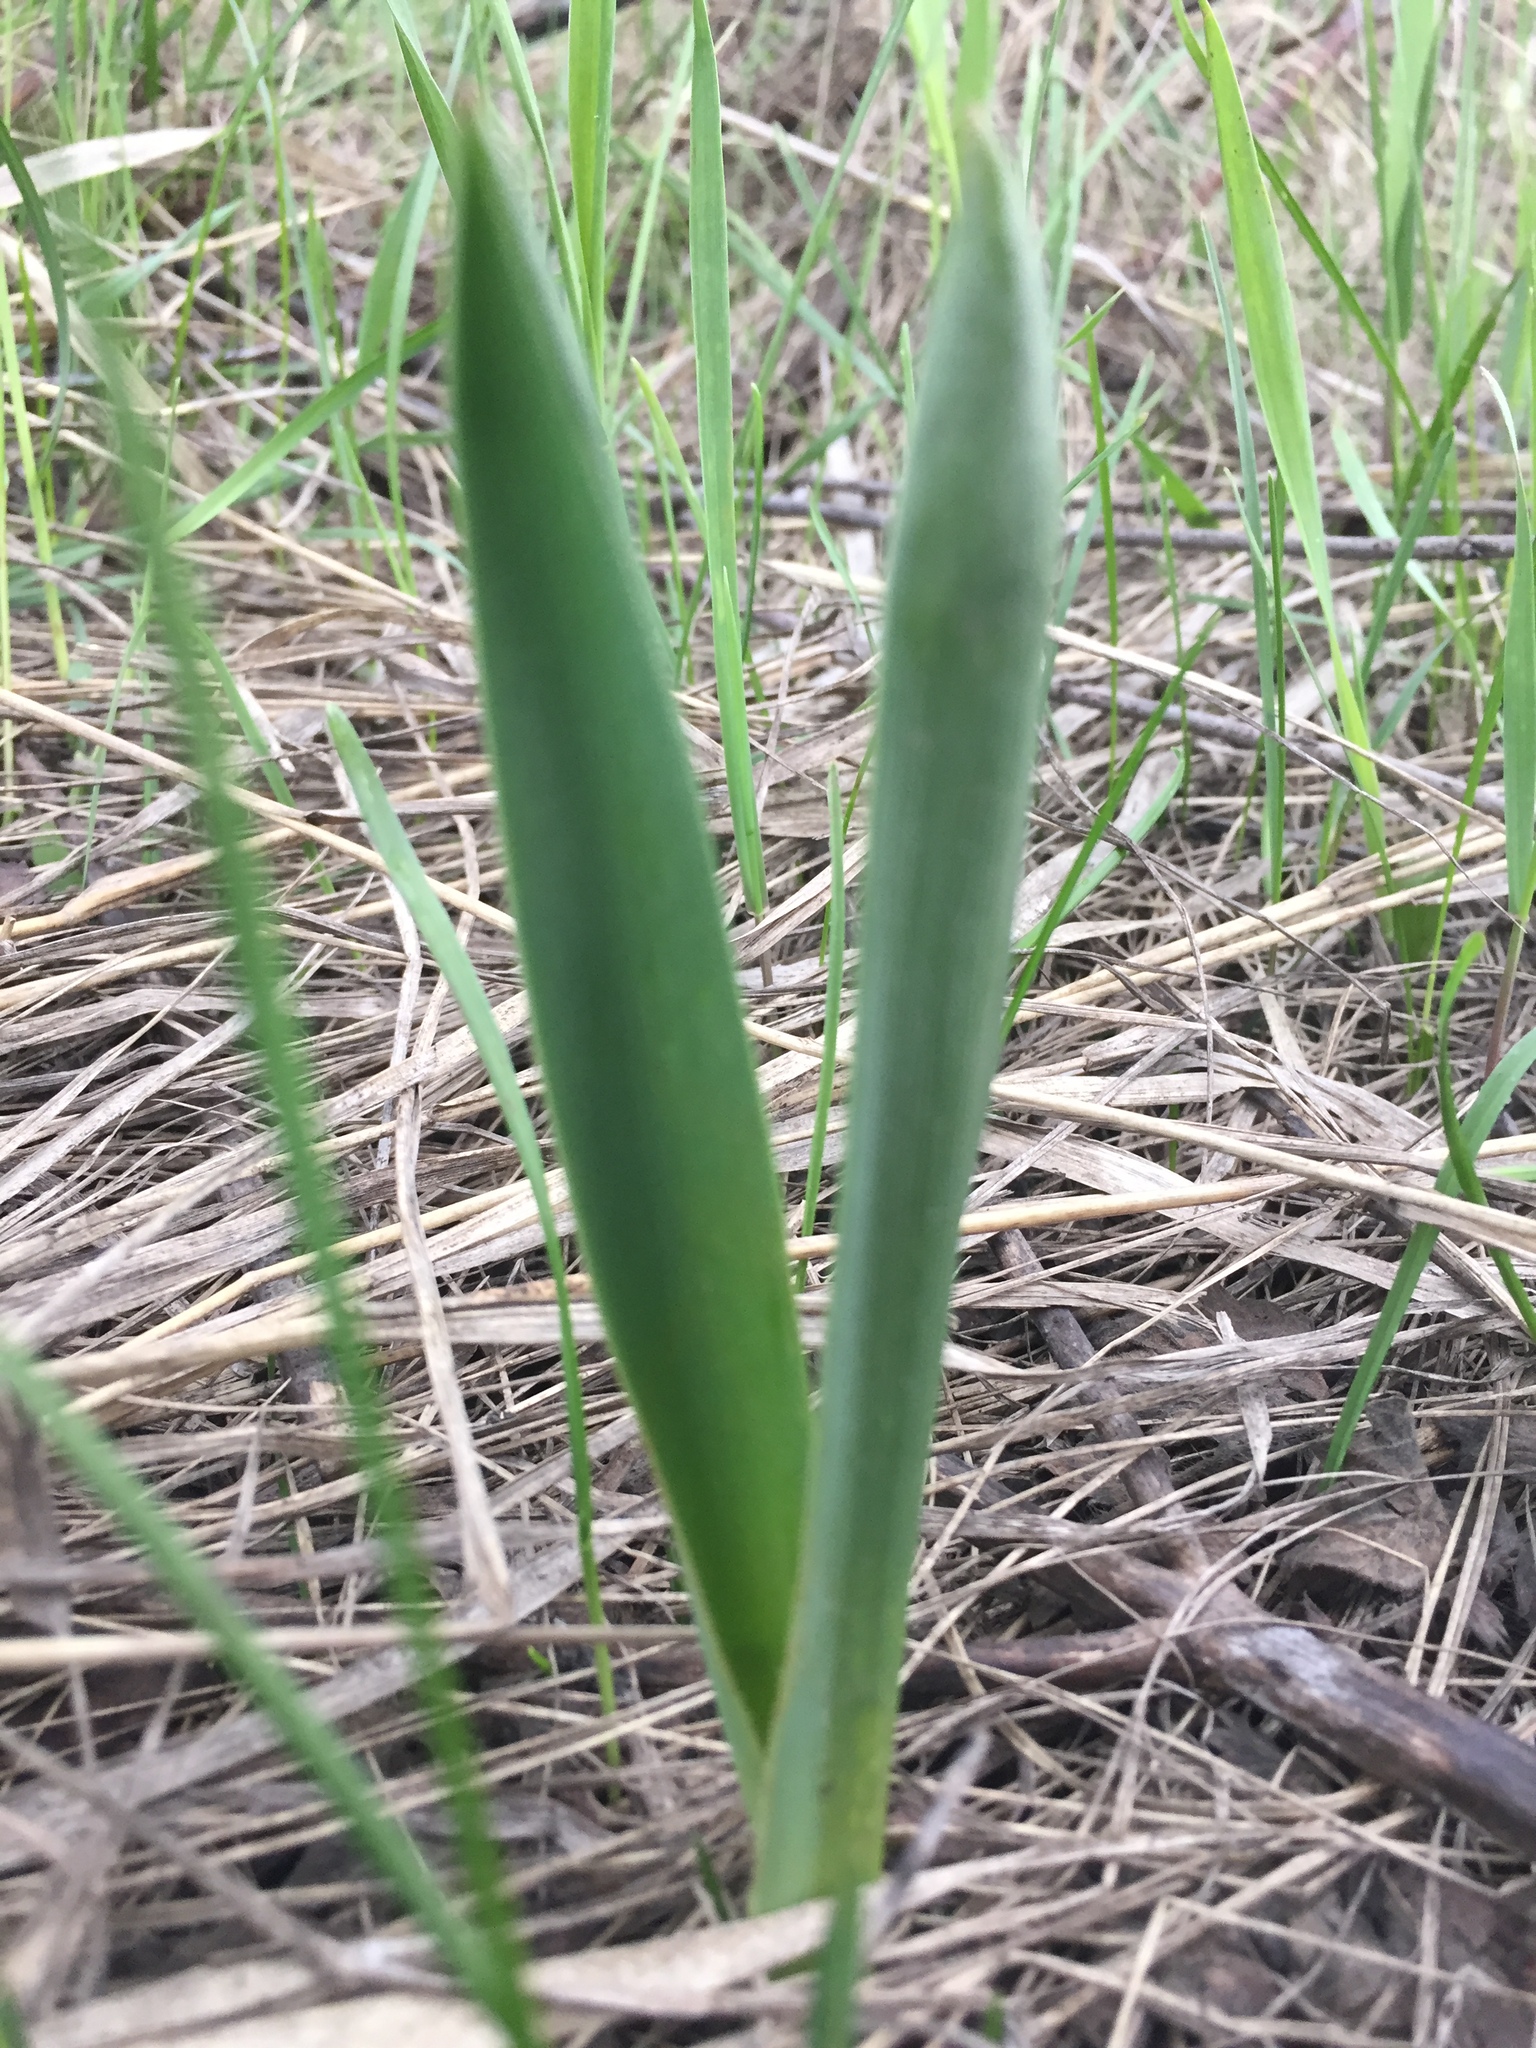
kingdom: Plantae
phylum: Tracheophyta
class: Liliopsida
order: Asparagales
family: Asparagaceae
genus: Bellevalia
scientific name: Bellevalia speciosa
